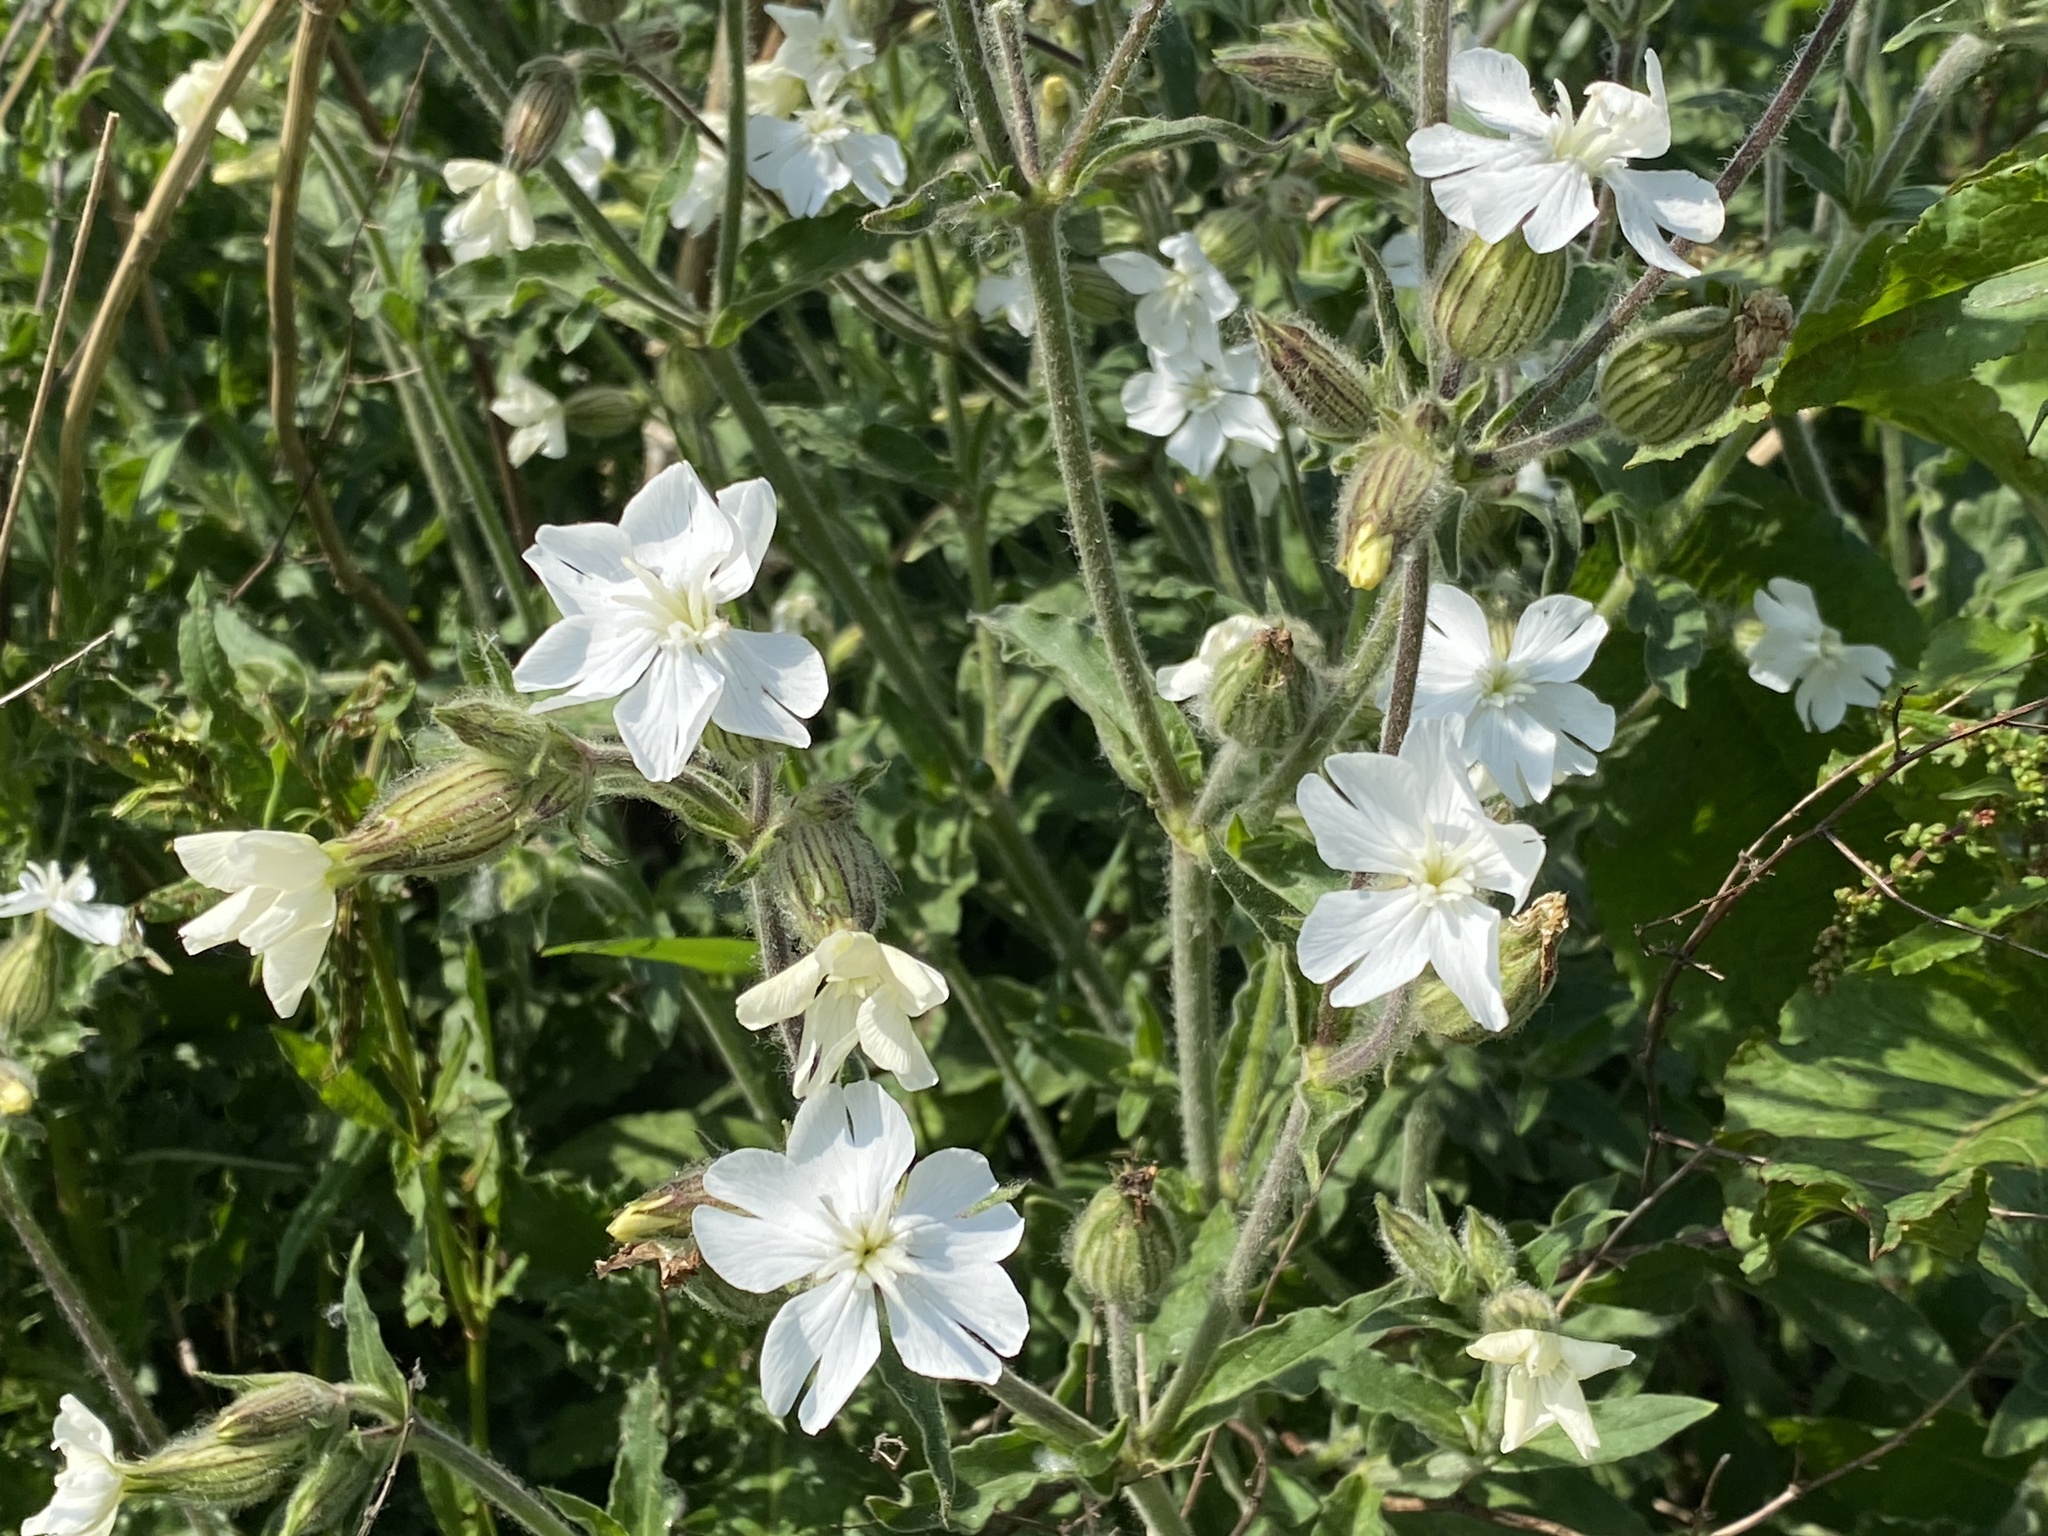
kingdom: Plantae
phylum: Tracheophyta
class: Magnoliopsida
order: Caryophyllales
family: Caryophyllaceae
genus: Silene
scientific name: Silene latifolia
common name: White campion
